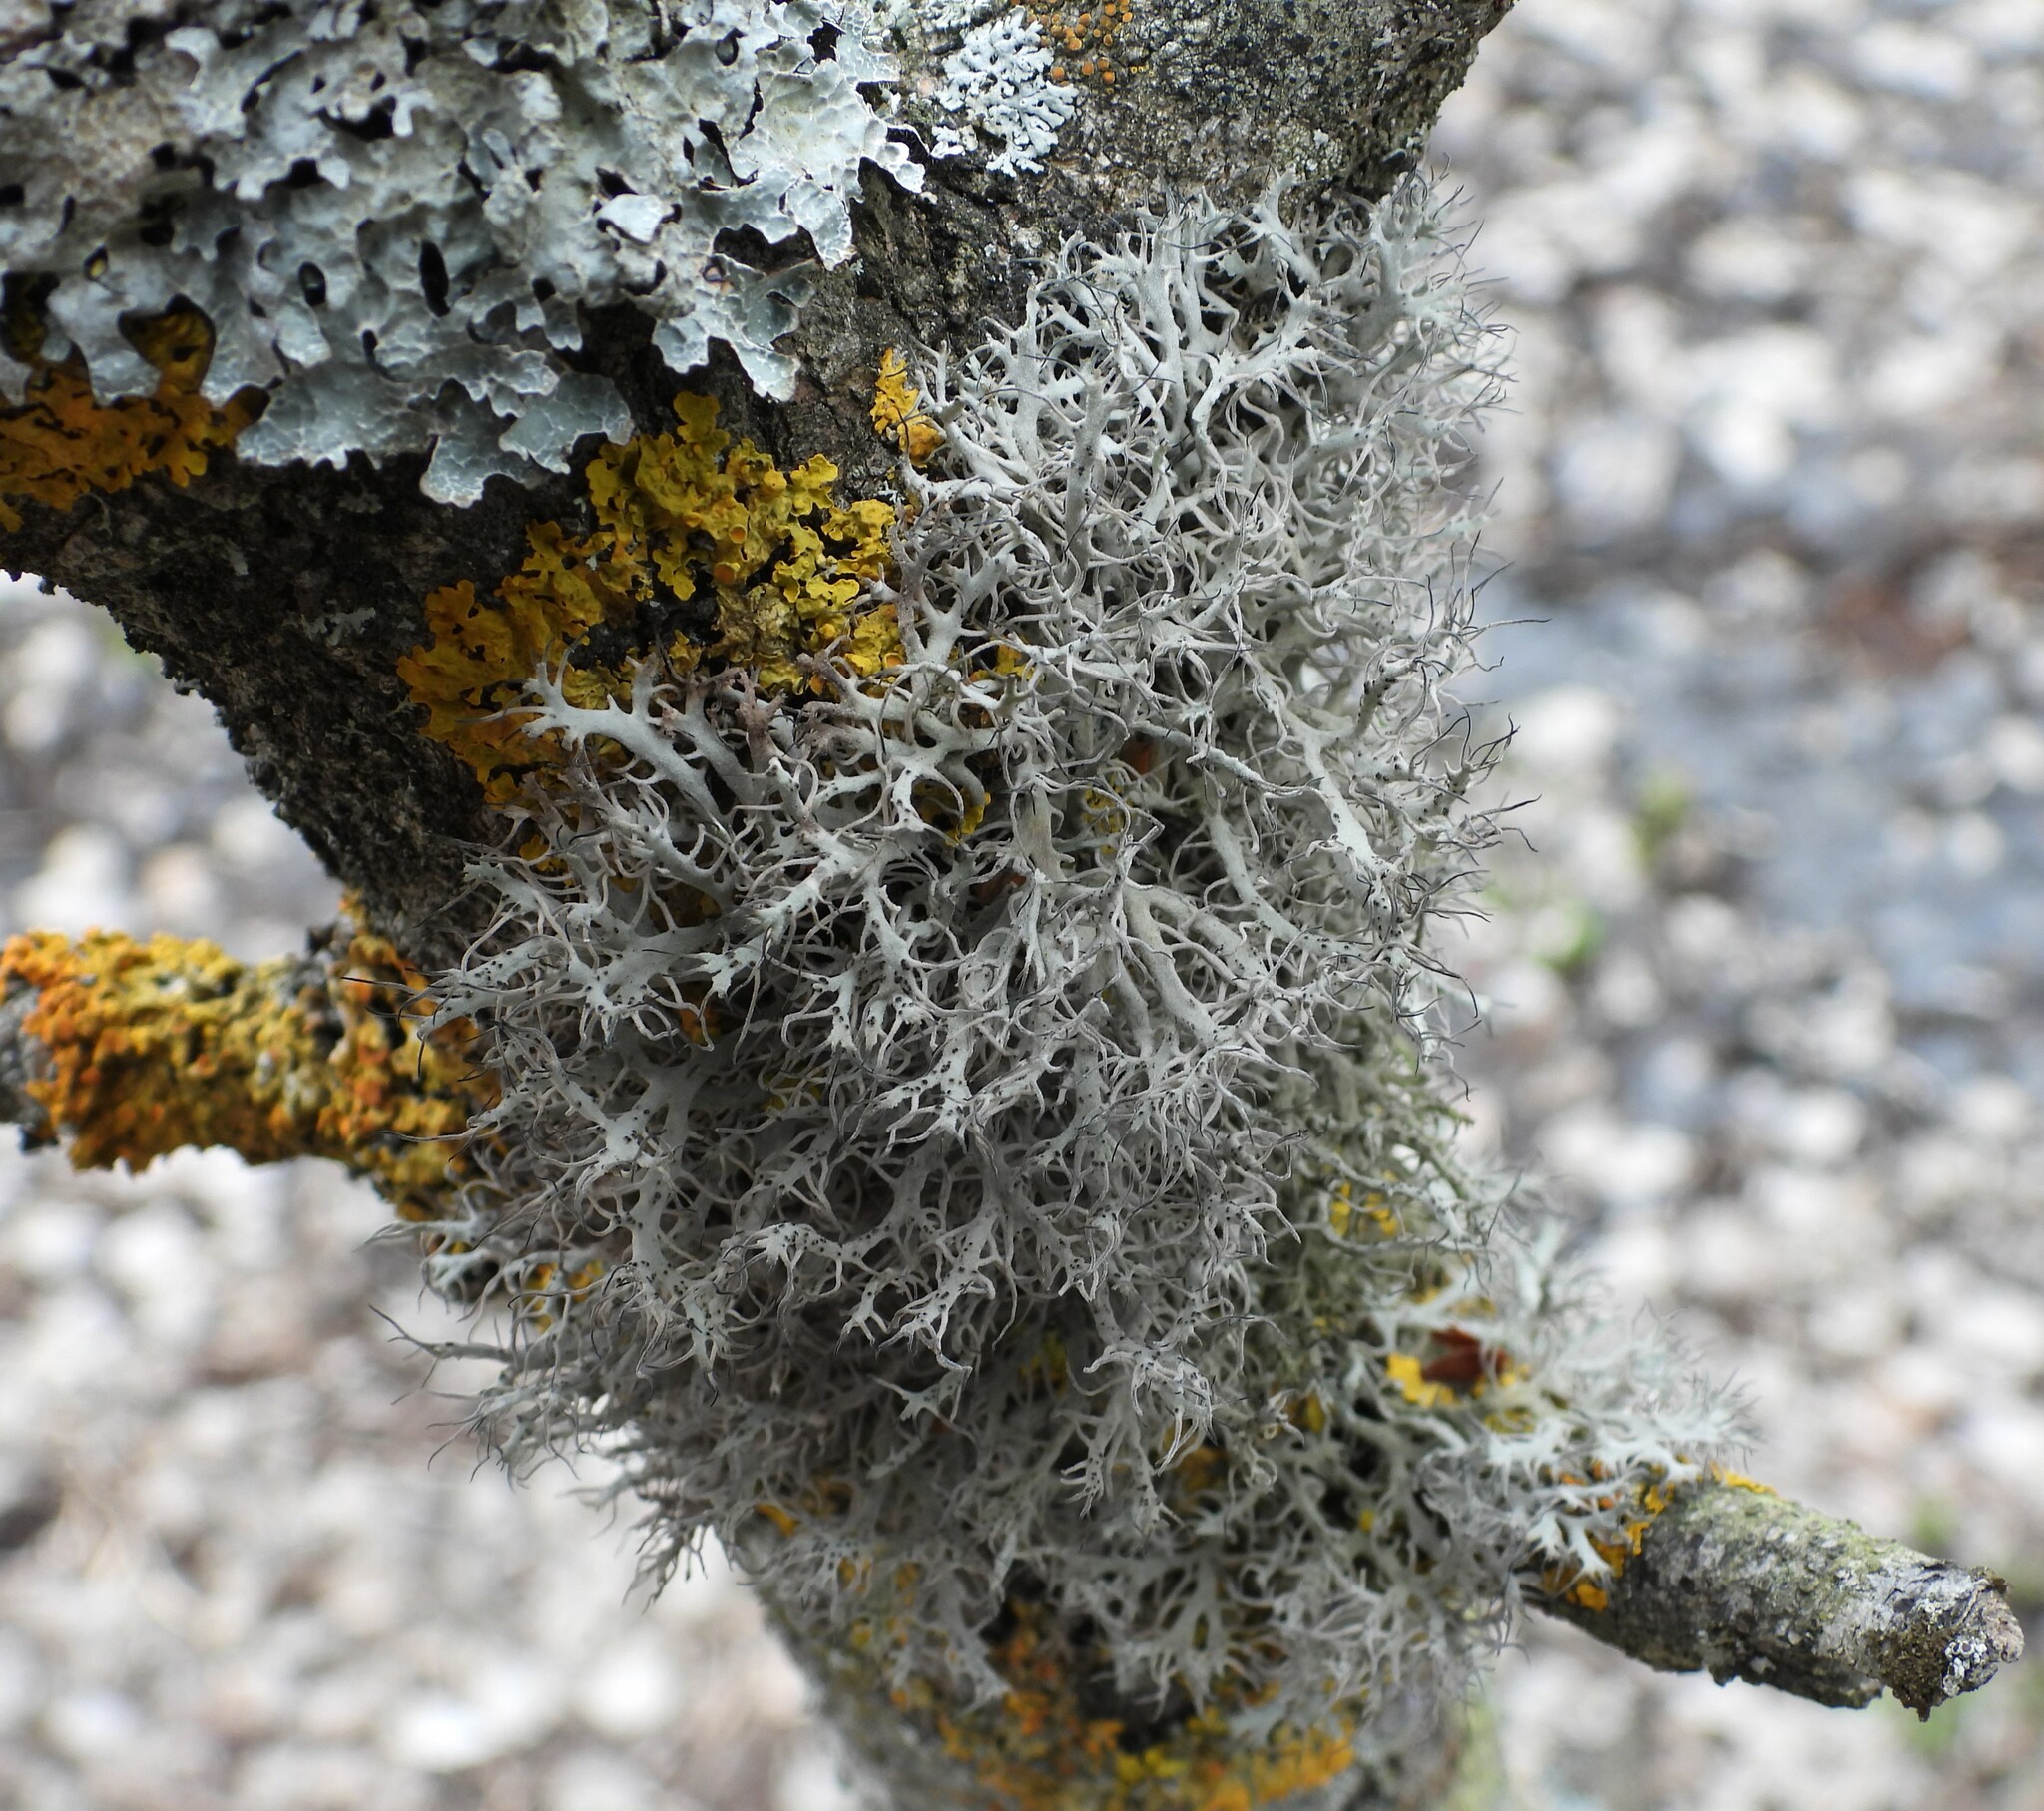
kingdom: Fungi
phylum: Ascomycota
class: Lecanoromycetes
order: Caliciales
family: Physciaceae
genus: Anaptychia
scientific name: Anaptychia ciliaris
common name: Great ciliated lichen
